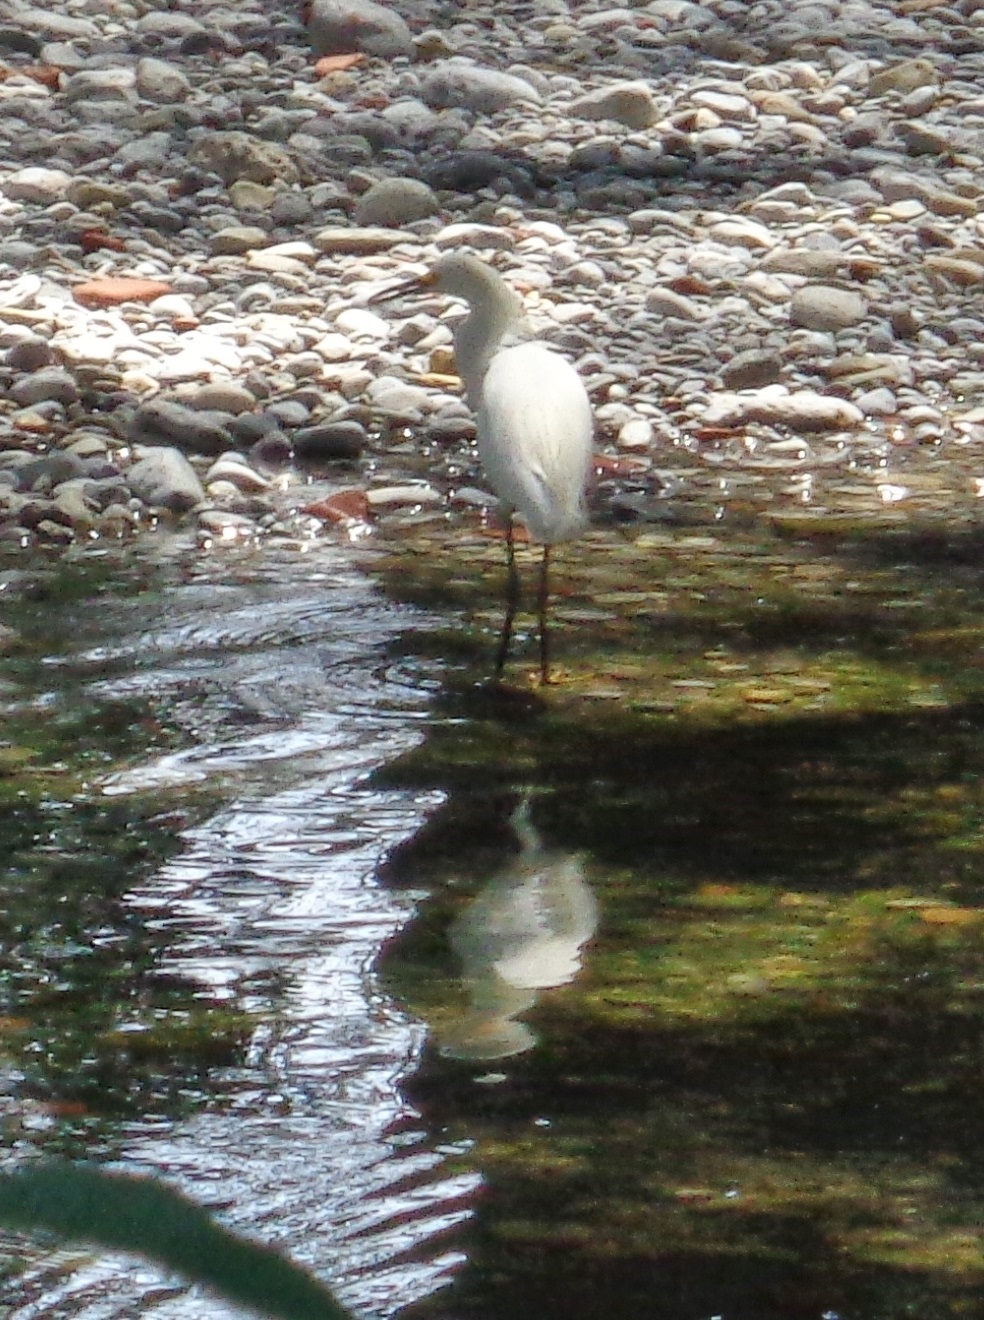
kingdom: Animalia
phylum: Chordata
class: Aves
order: Pelecaniformes
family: Ardeidae
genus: Egretta
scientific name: Egretta thula
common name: Snowy egret
